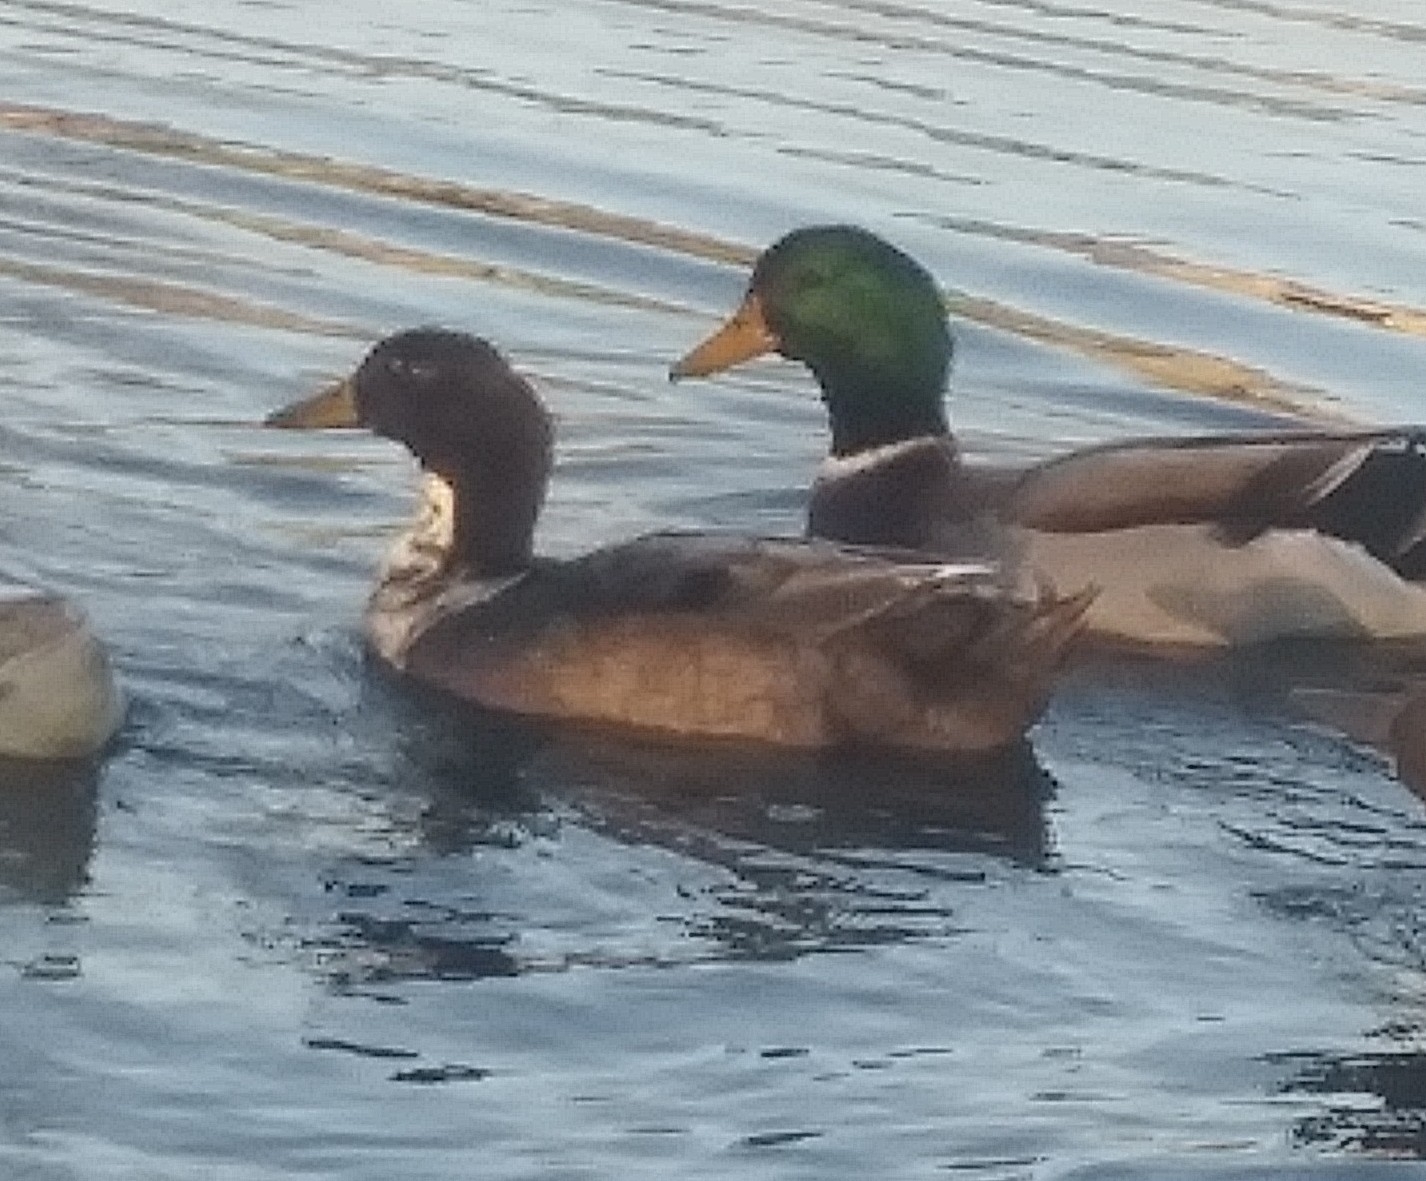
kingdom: Animalia
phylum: Chordata
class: Aves
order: Anseriformes
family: Anatidae
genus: Anas
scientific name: Anas platyrhynchos
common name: Mallard
